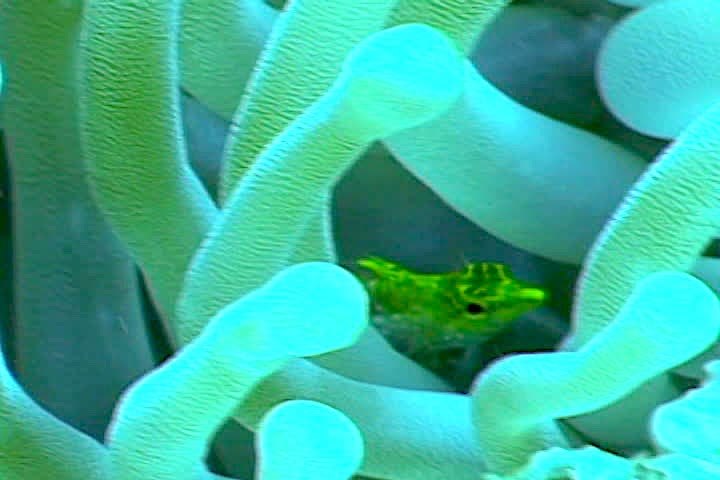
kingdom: Animalia
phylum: Chordata
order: Perciformes
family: Labrisomidae
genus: Malacoctenus
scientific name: Malacoctenus boehlkei
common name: Diamond blenny
